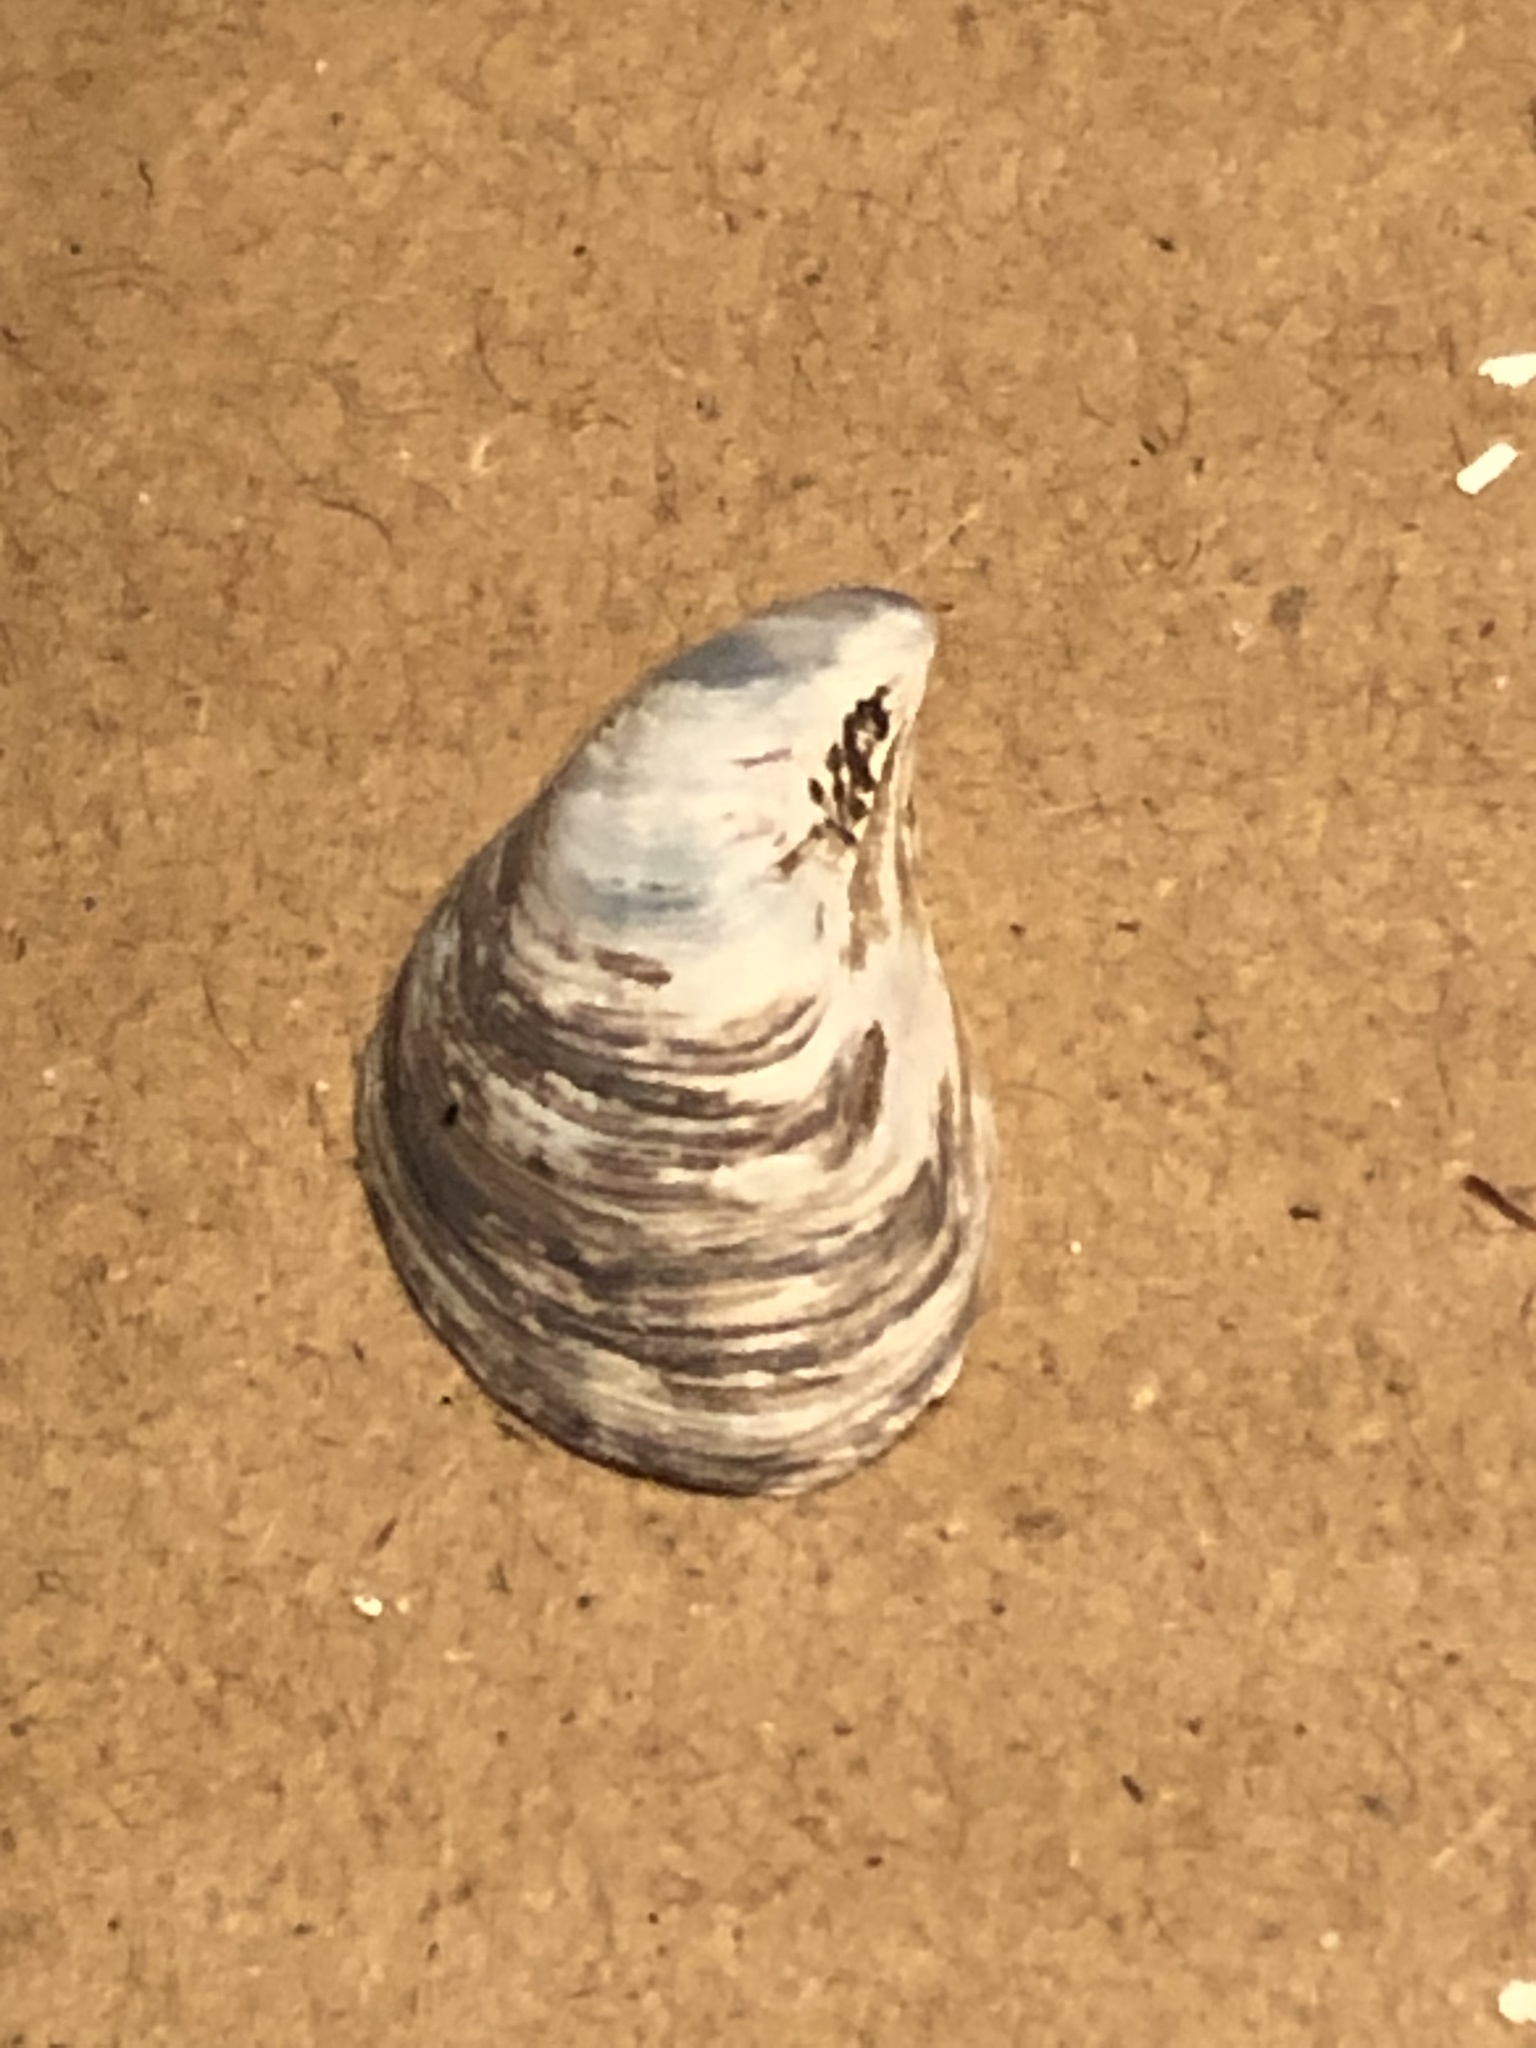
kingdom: Animalia
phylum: Mollusca
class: Bivalvia
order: Myida
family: Dreissenidae
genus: Dreissena
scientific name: Dreissena bugensis
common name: Quagga mussel
